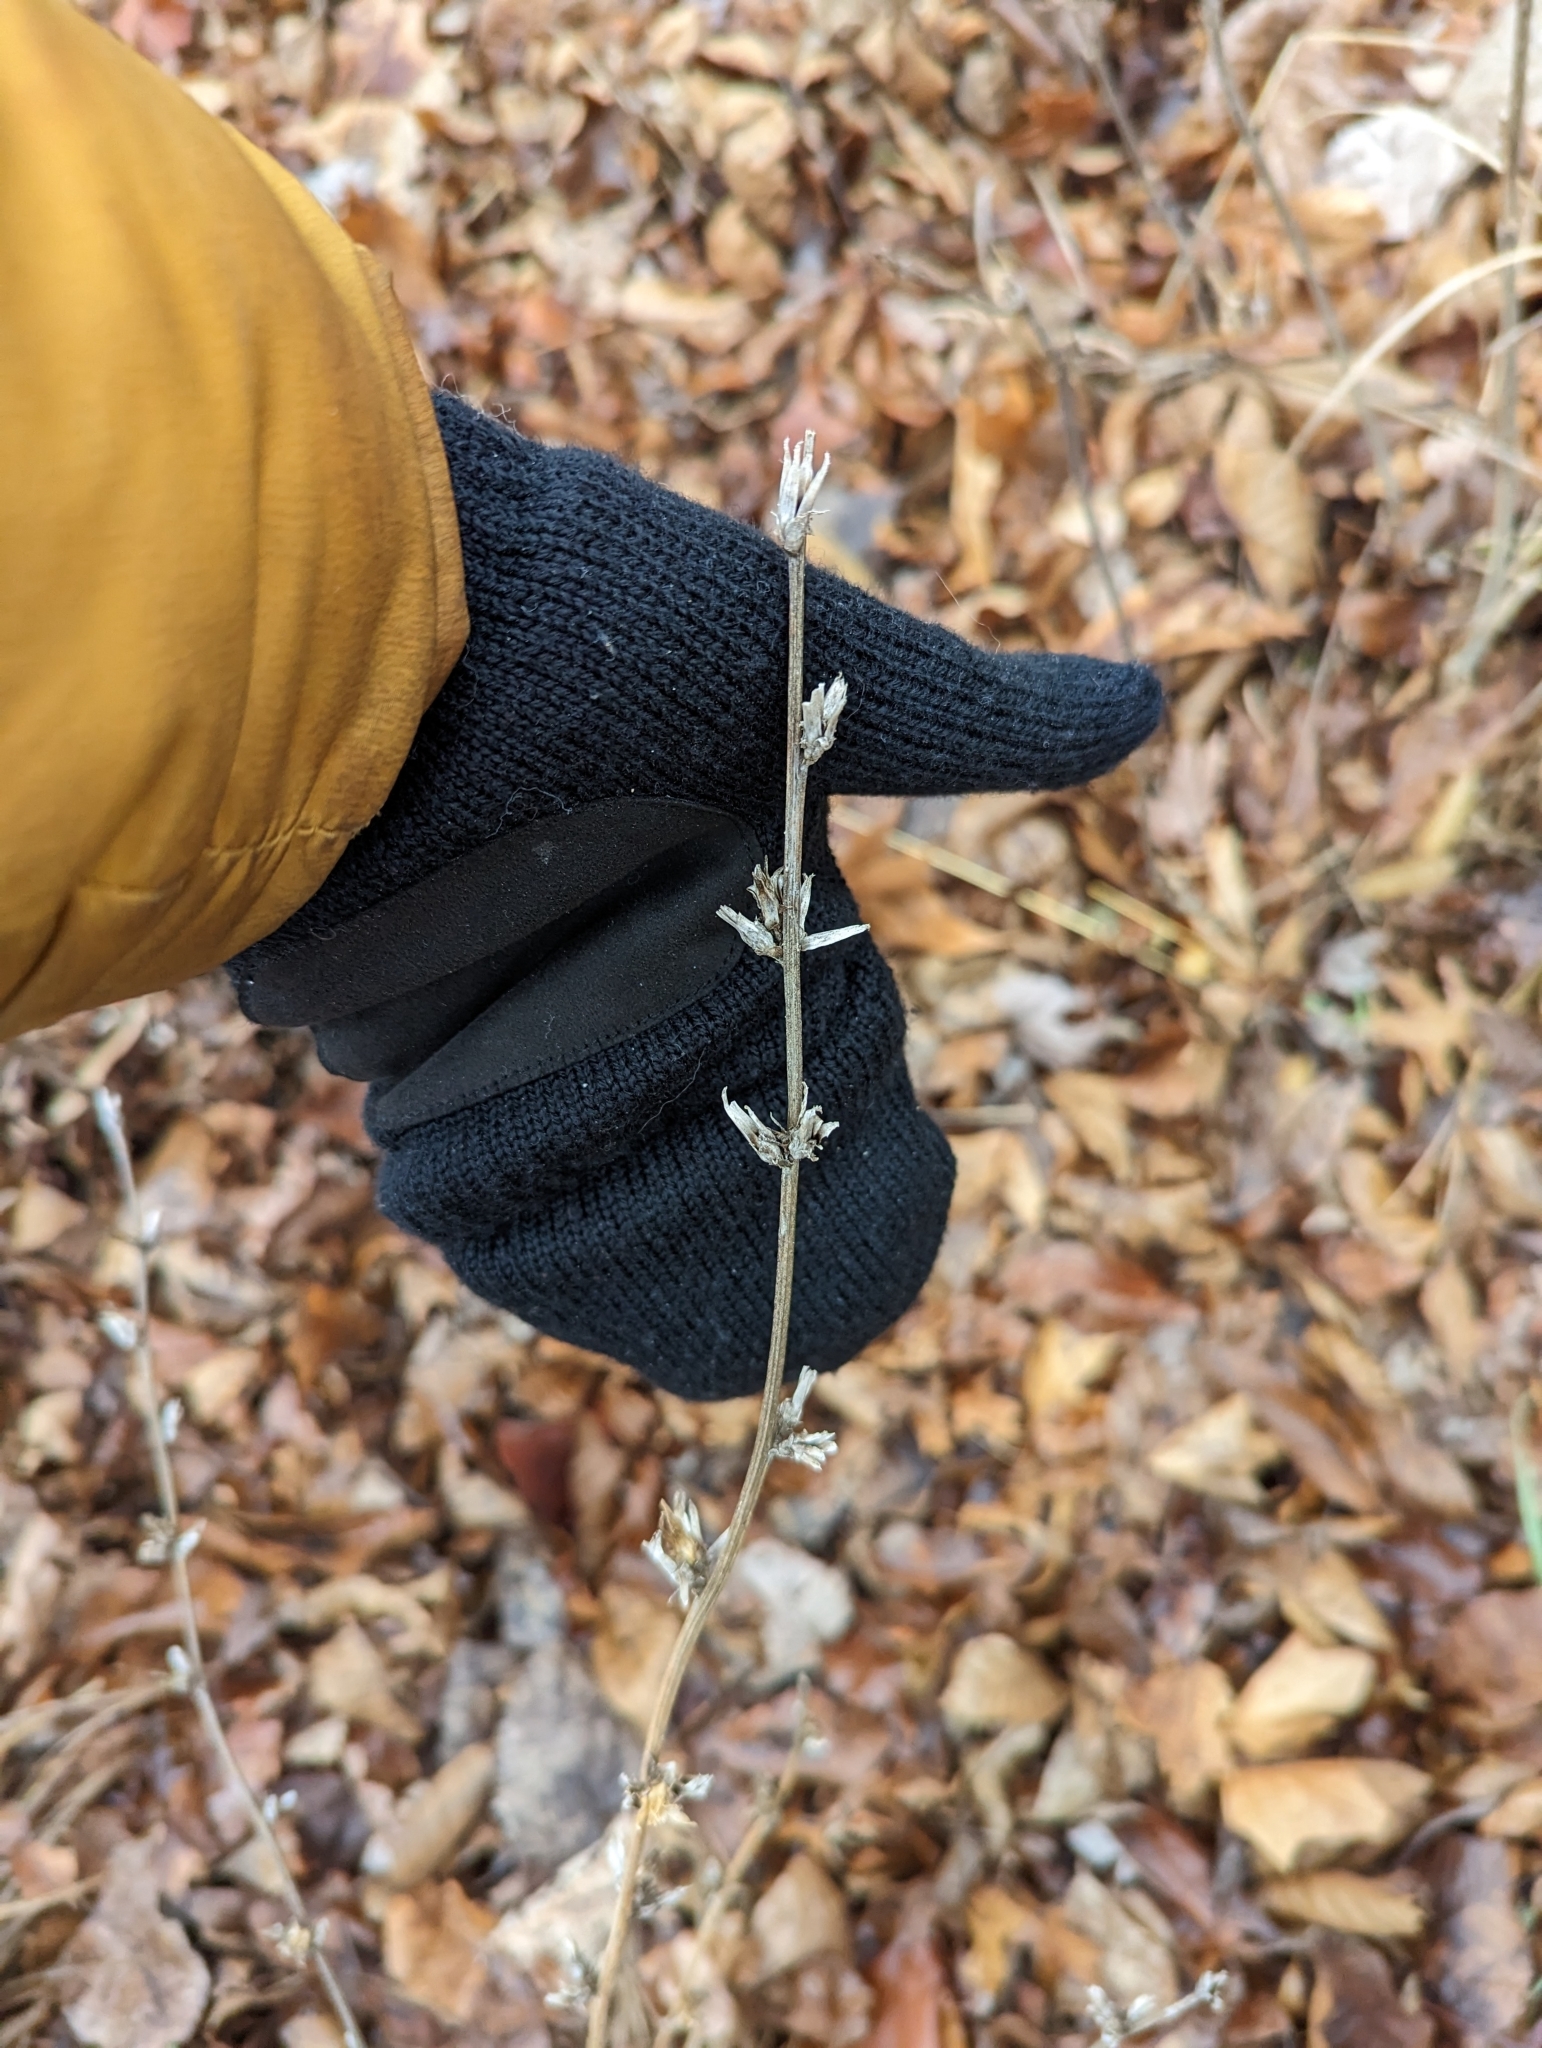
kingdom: Plantae
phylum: Tracheophyta
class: Magnoliopsida
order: Asterales
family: Asteraceae
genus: Cichorium
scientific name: Cichorium intybus
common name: Chicory
